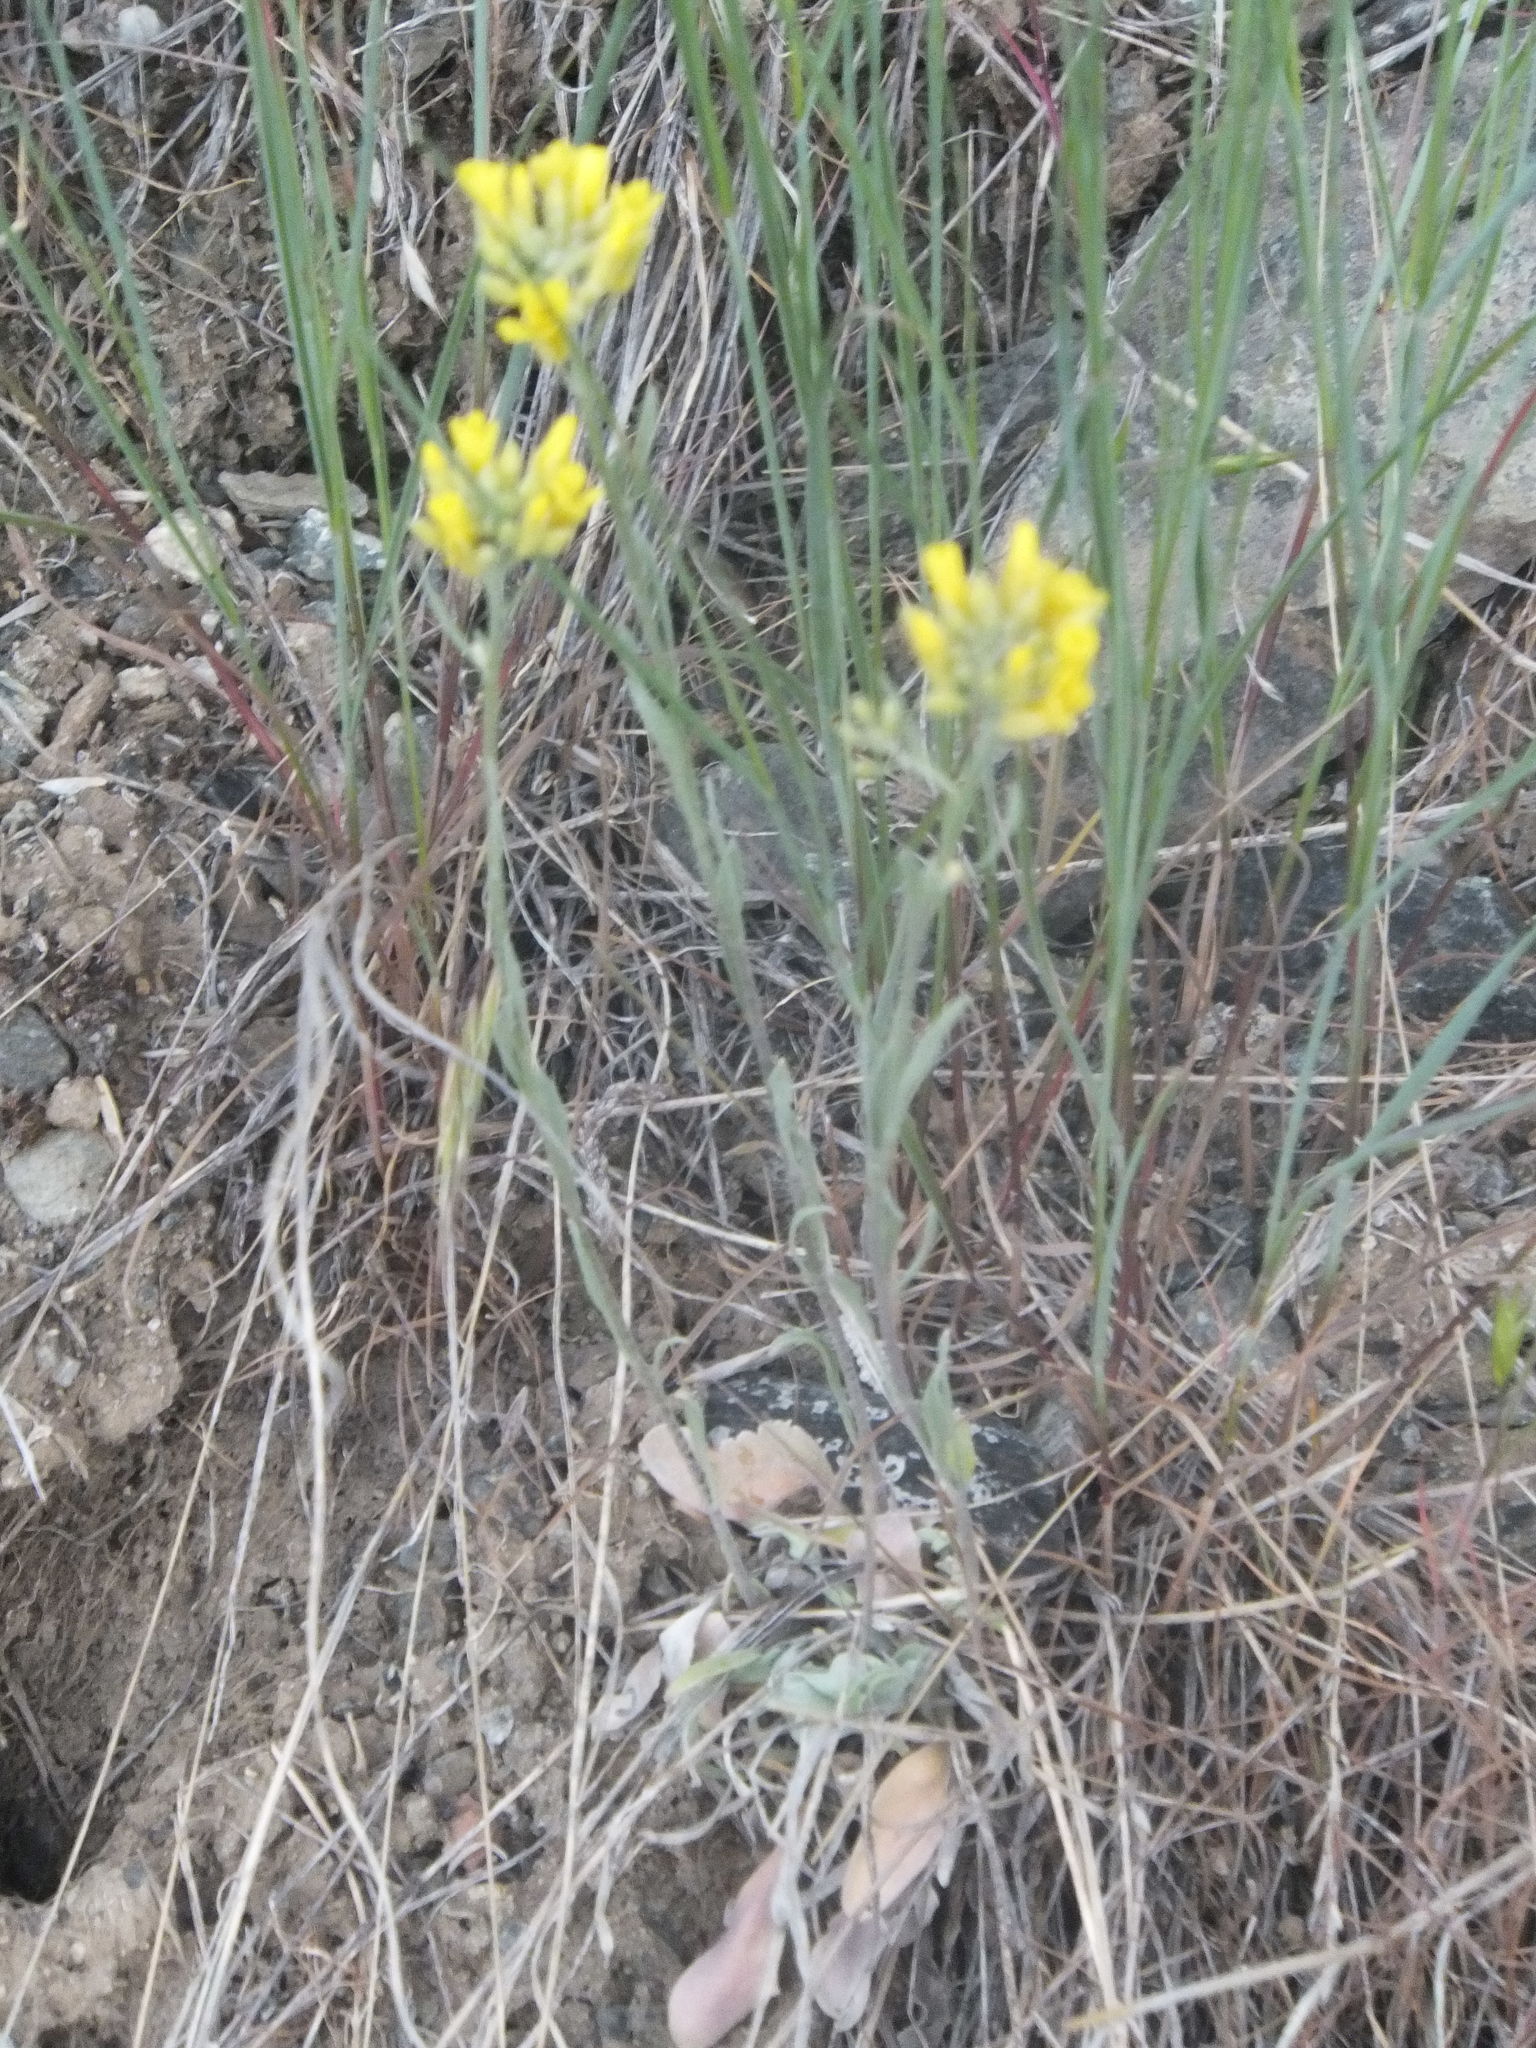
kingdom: Plantae
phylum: Tracheophyta
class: Magnoliopsida
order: Brassicales
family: Brassicaceae
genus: Physaria
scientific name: Physaria douglasii
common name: Douglas's bladderpod
